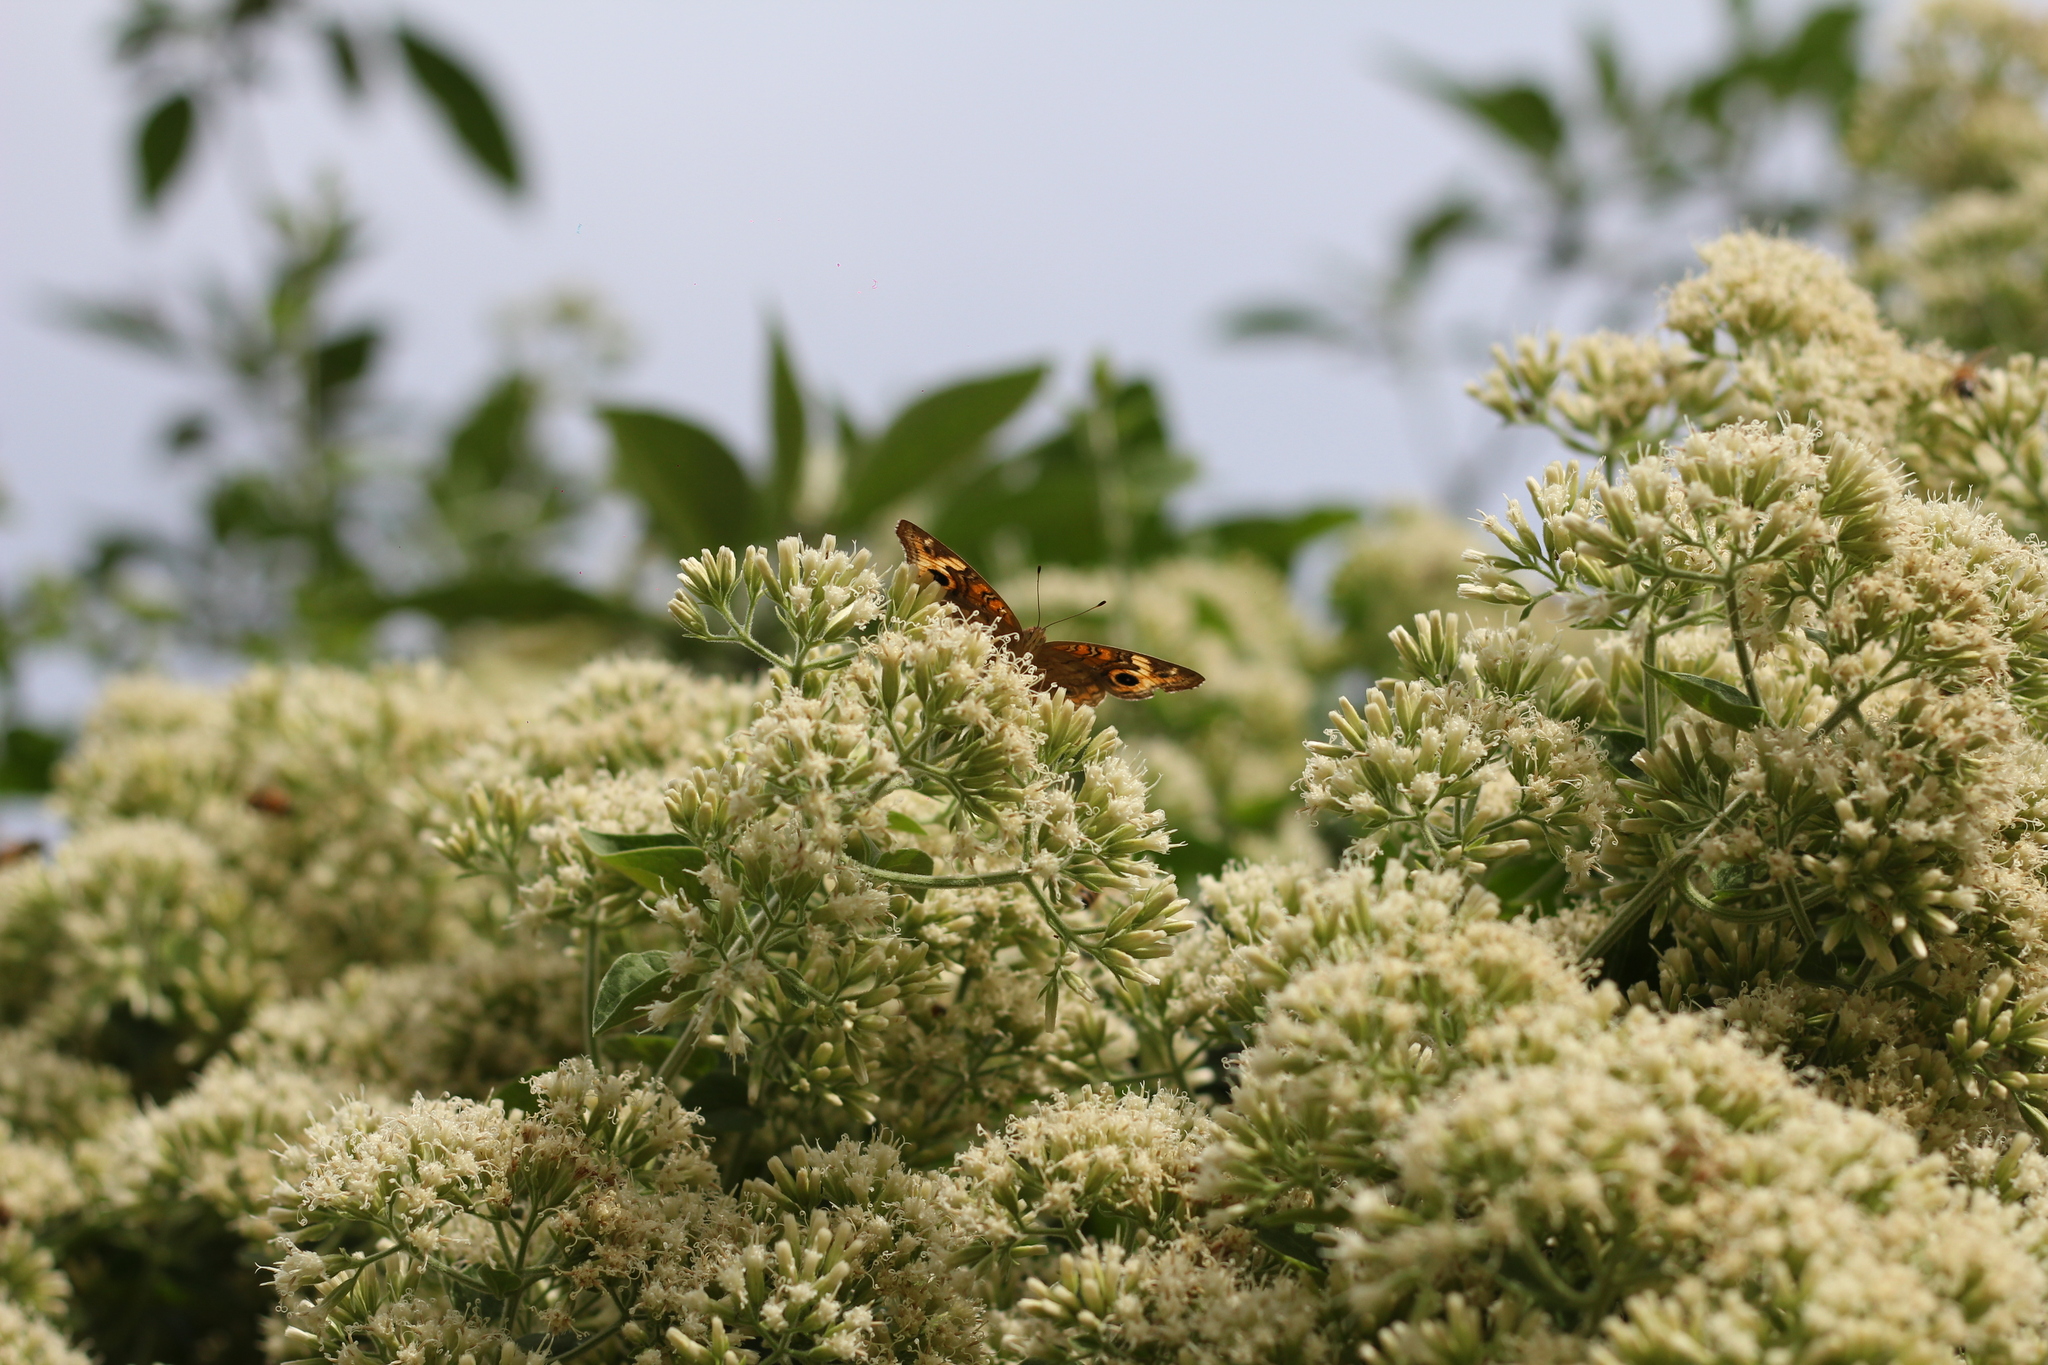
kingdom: Animalia
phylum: Arthropoda
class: Insecta
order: Lepidoptera
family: Nymphalidae
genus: Junonia
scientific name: Junonia lavinia
